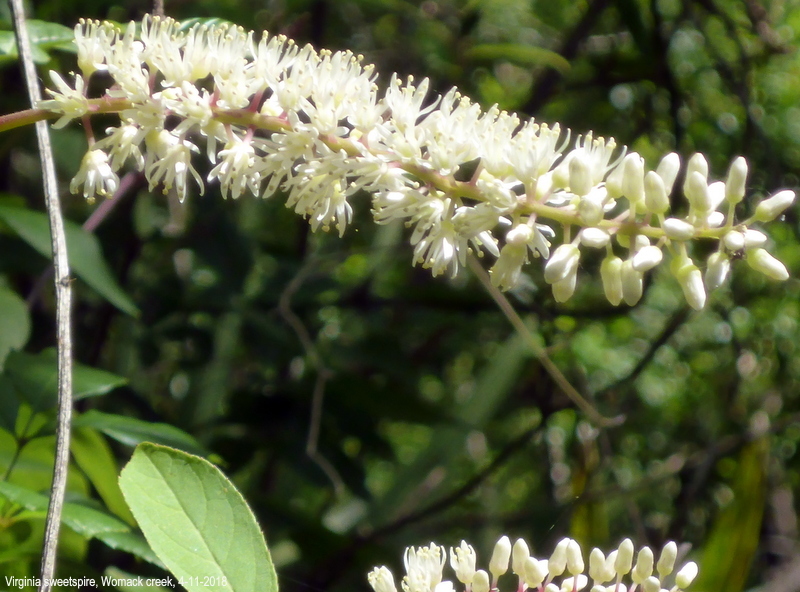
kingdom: Plantae
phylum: Tracheophyta
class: Magnoliopsida
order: Saxifragales
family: Iteaceae
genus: Itea
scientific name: Itea virginica
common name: Sweetspire
